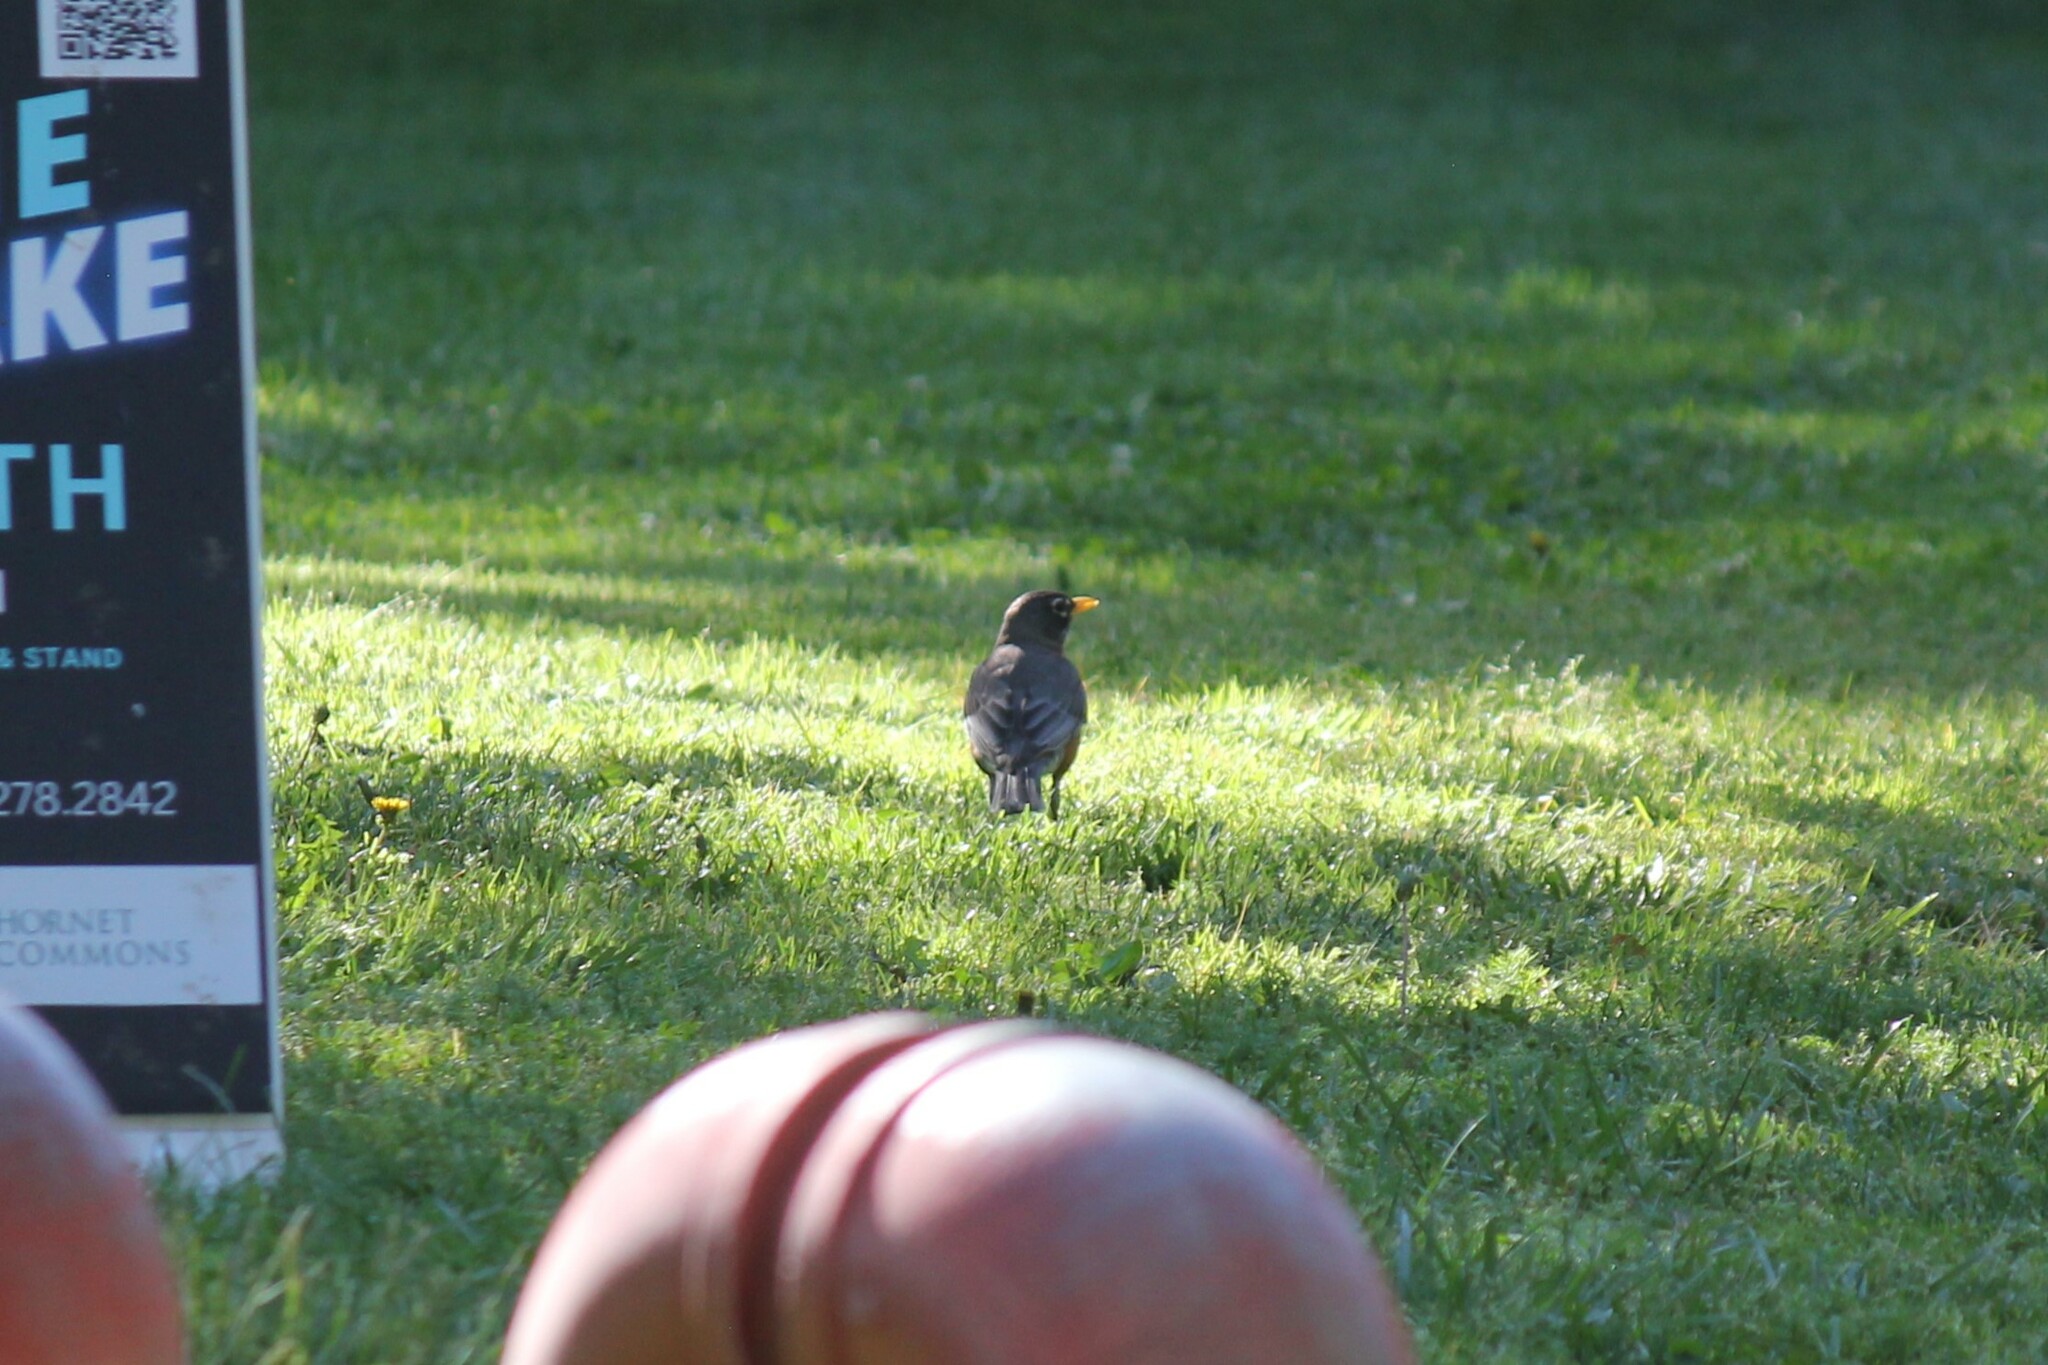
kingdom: Animalia
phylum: Chordata
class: Aves
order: Passeriformes
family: Turdidae
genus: Turdus
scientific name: Turdus migratorius
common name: American robin
